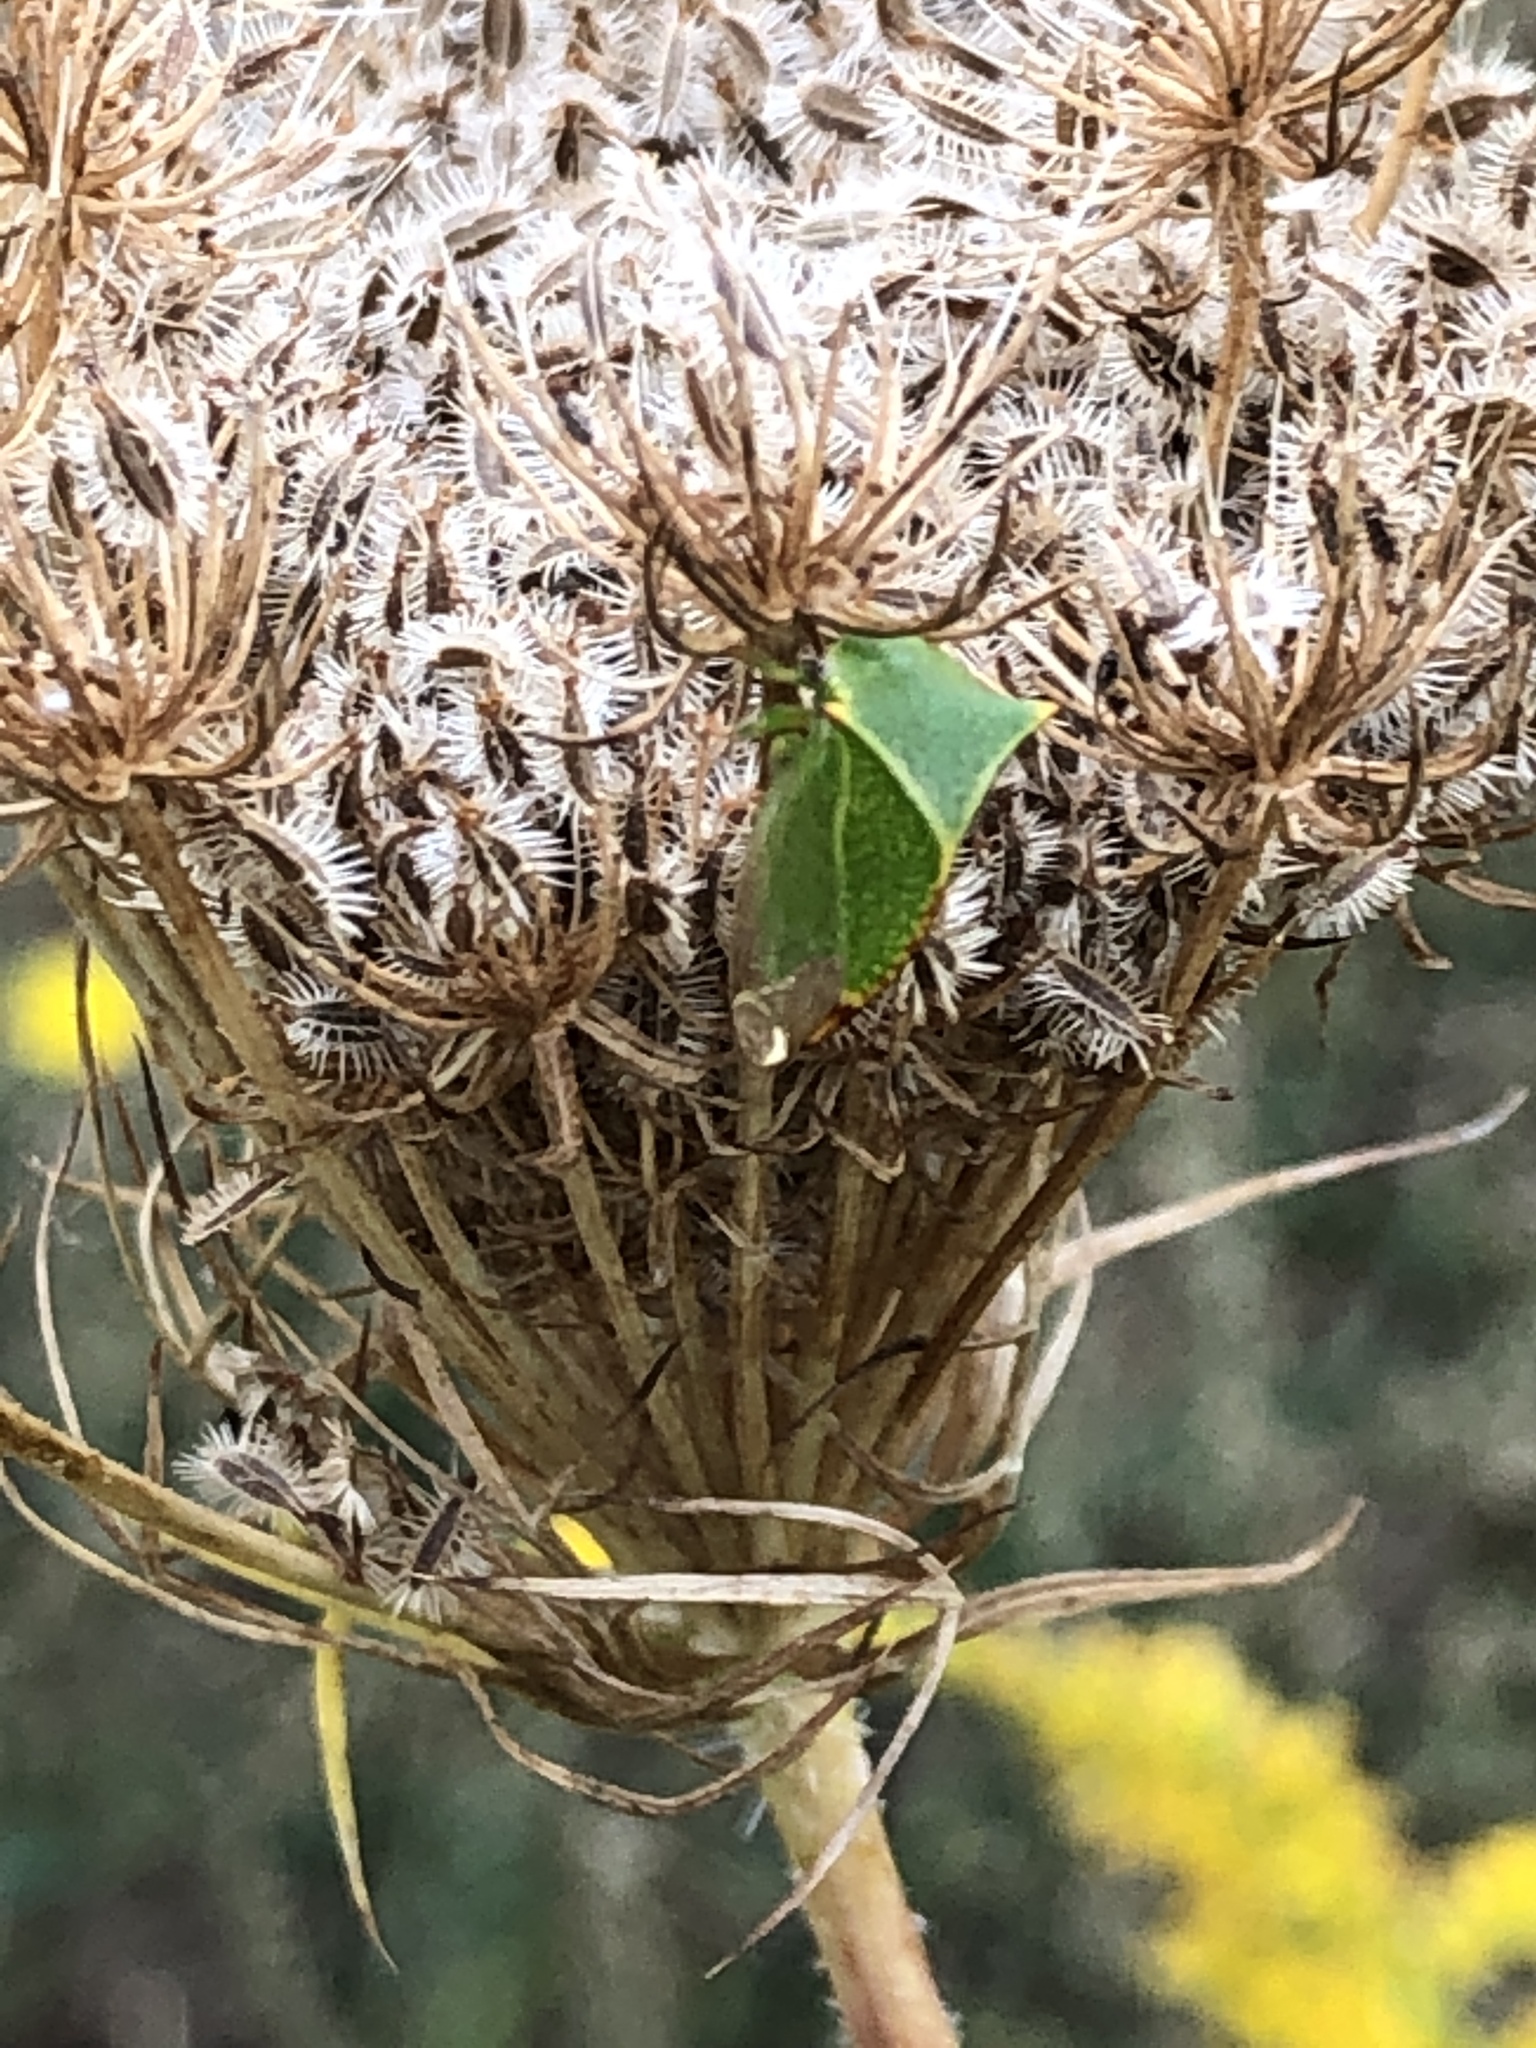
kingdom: Animalia
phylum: Arthropoda
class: Insecta
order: Hemiptera
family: Membracidae
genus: Stictocephala
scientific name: Stictocephala bisonia
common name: American buffalo treehopper
